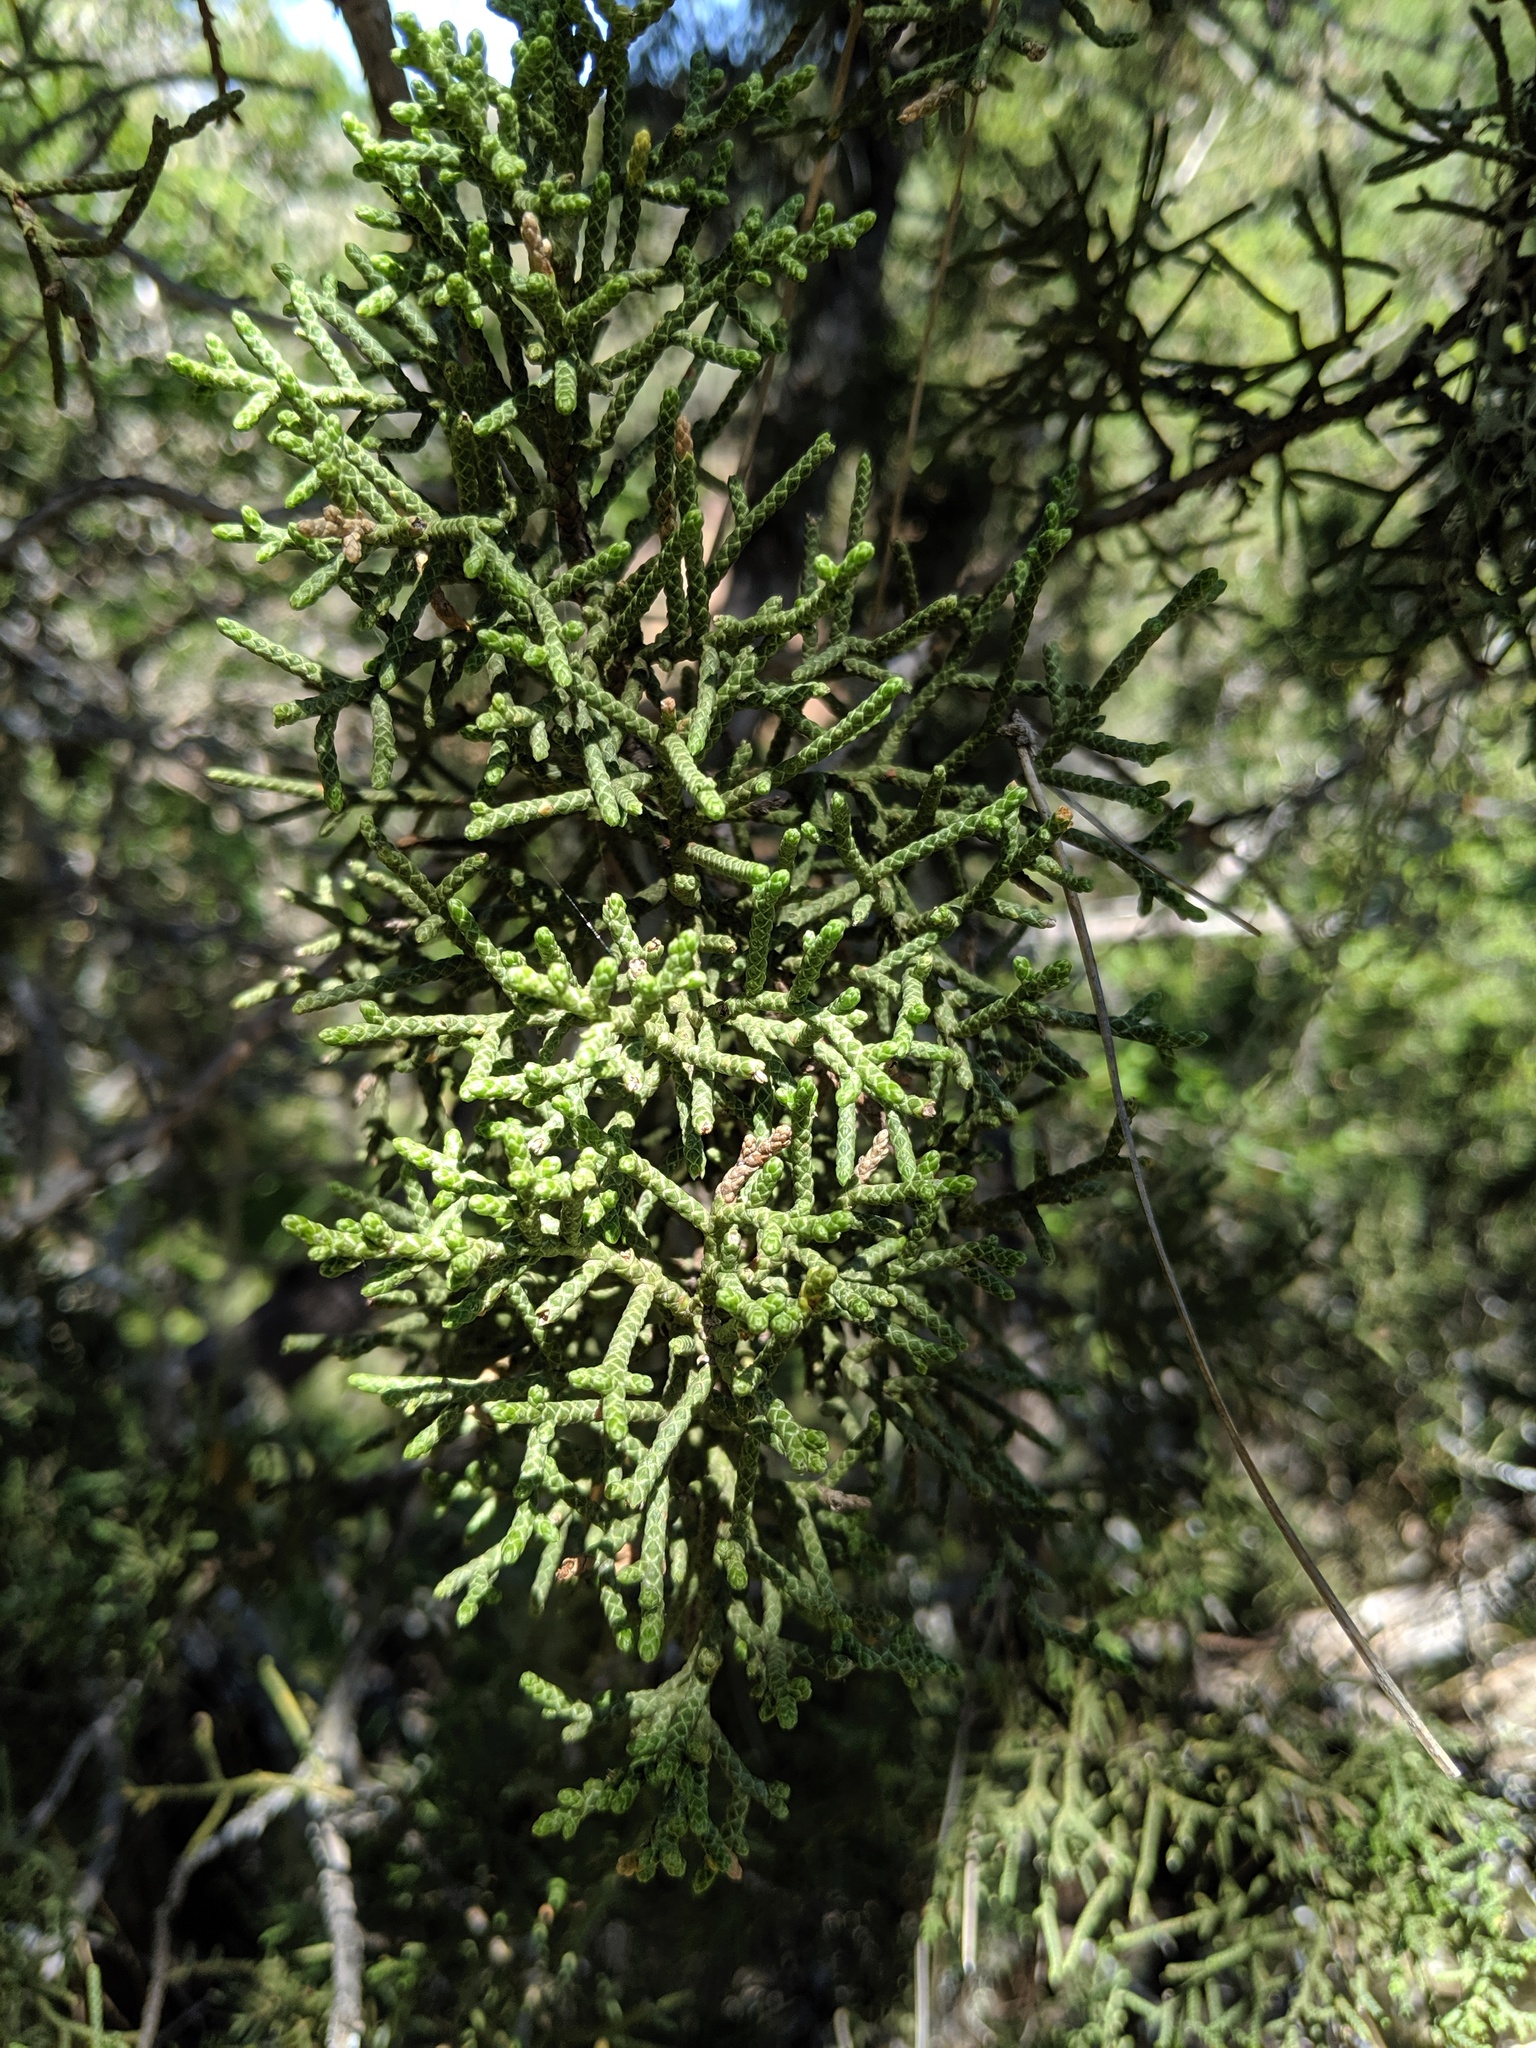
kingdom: Plantae
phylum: Tracheophyta
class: Pinopsida
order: Pinales
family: Cupressaceae
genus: Juniperus
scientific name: Juniperus californica
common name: California juniper
